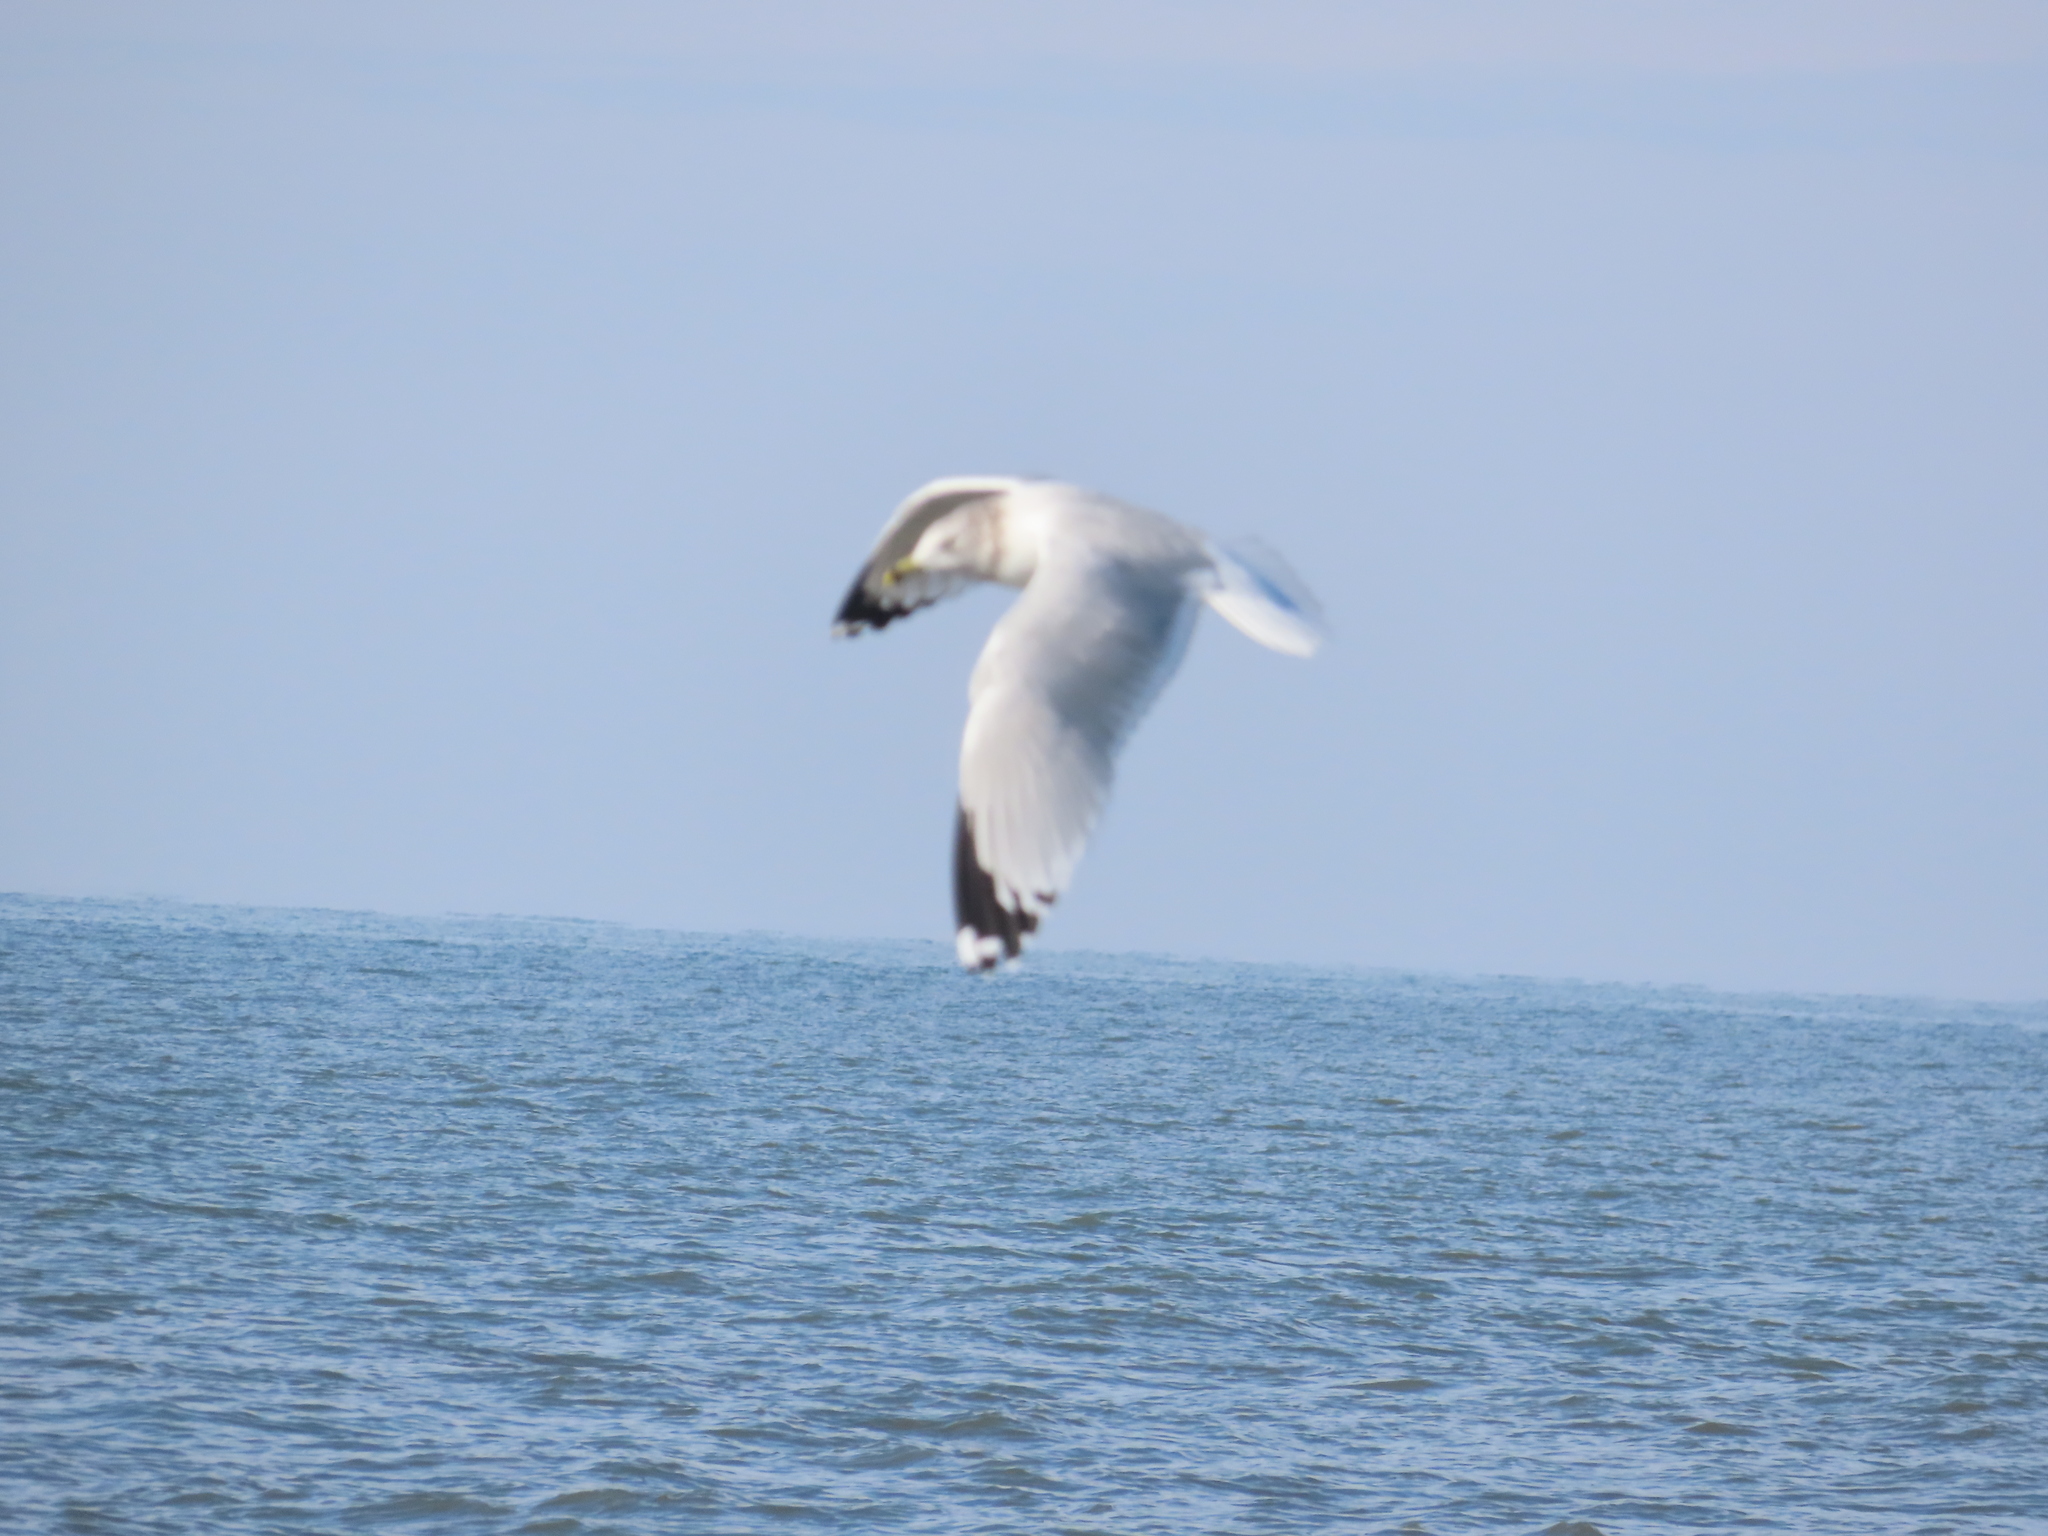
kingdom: Animalia
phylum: Chordata
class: Aves
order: Charadriiformes
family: Laridae
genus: Larus
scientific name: Larus delawarensis
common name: Ring-billed gull
